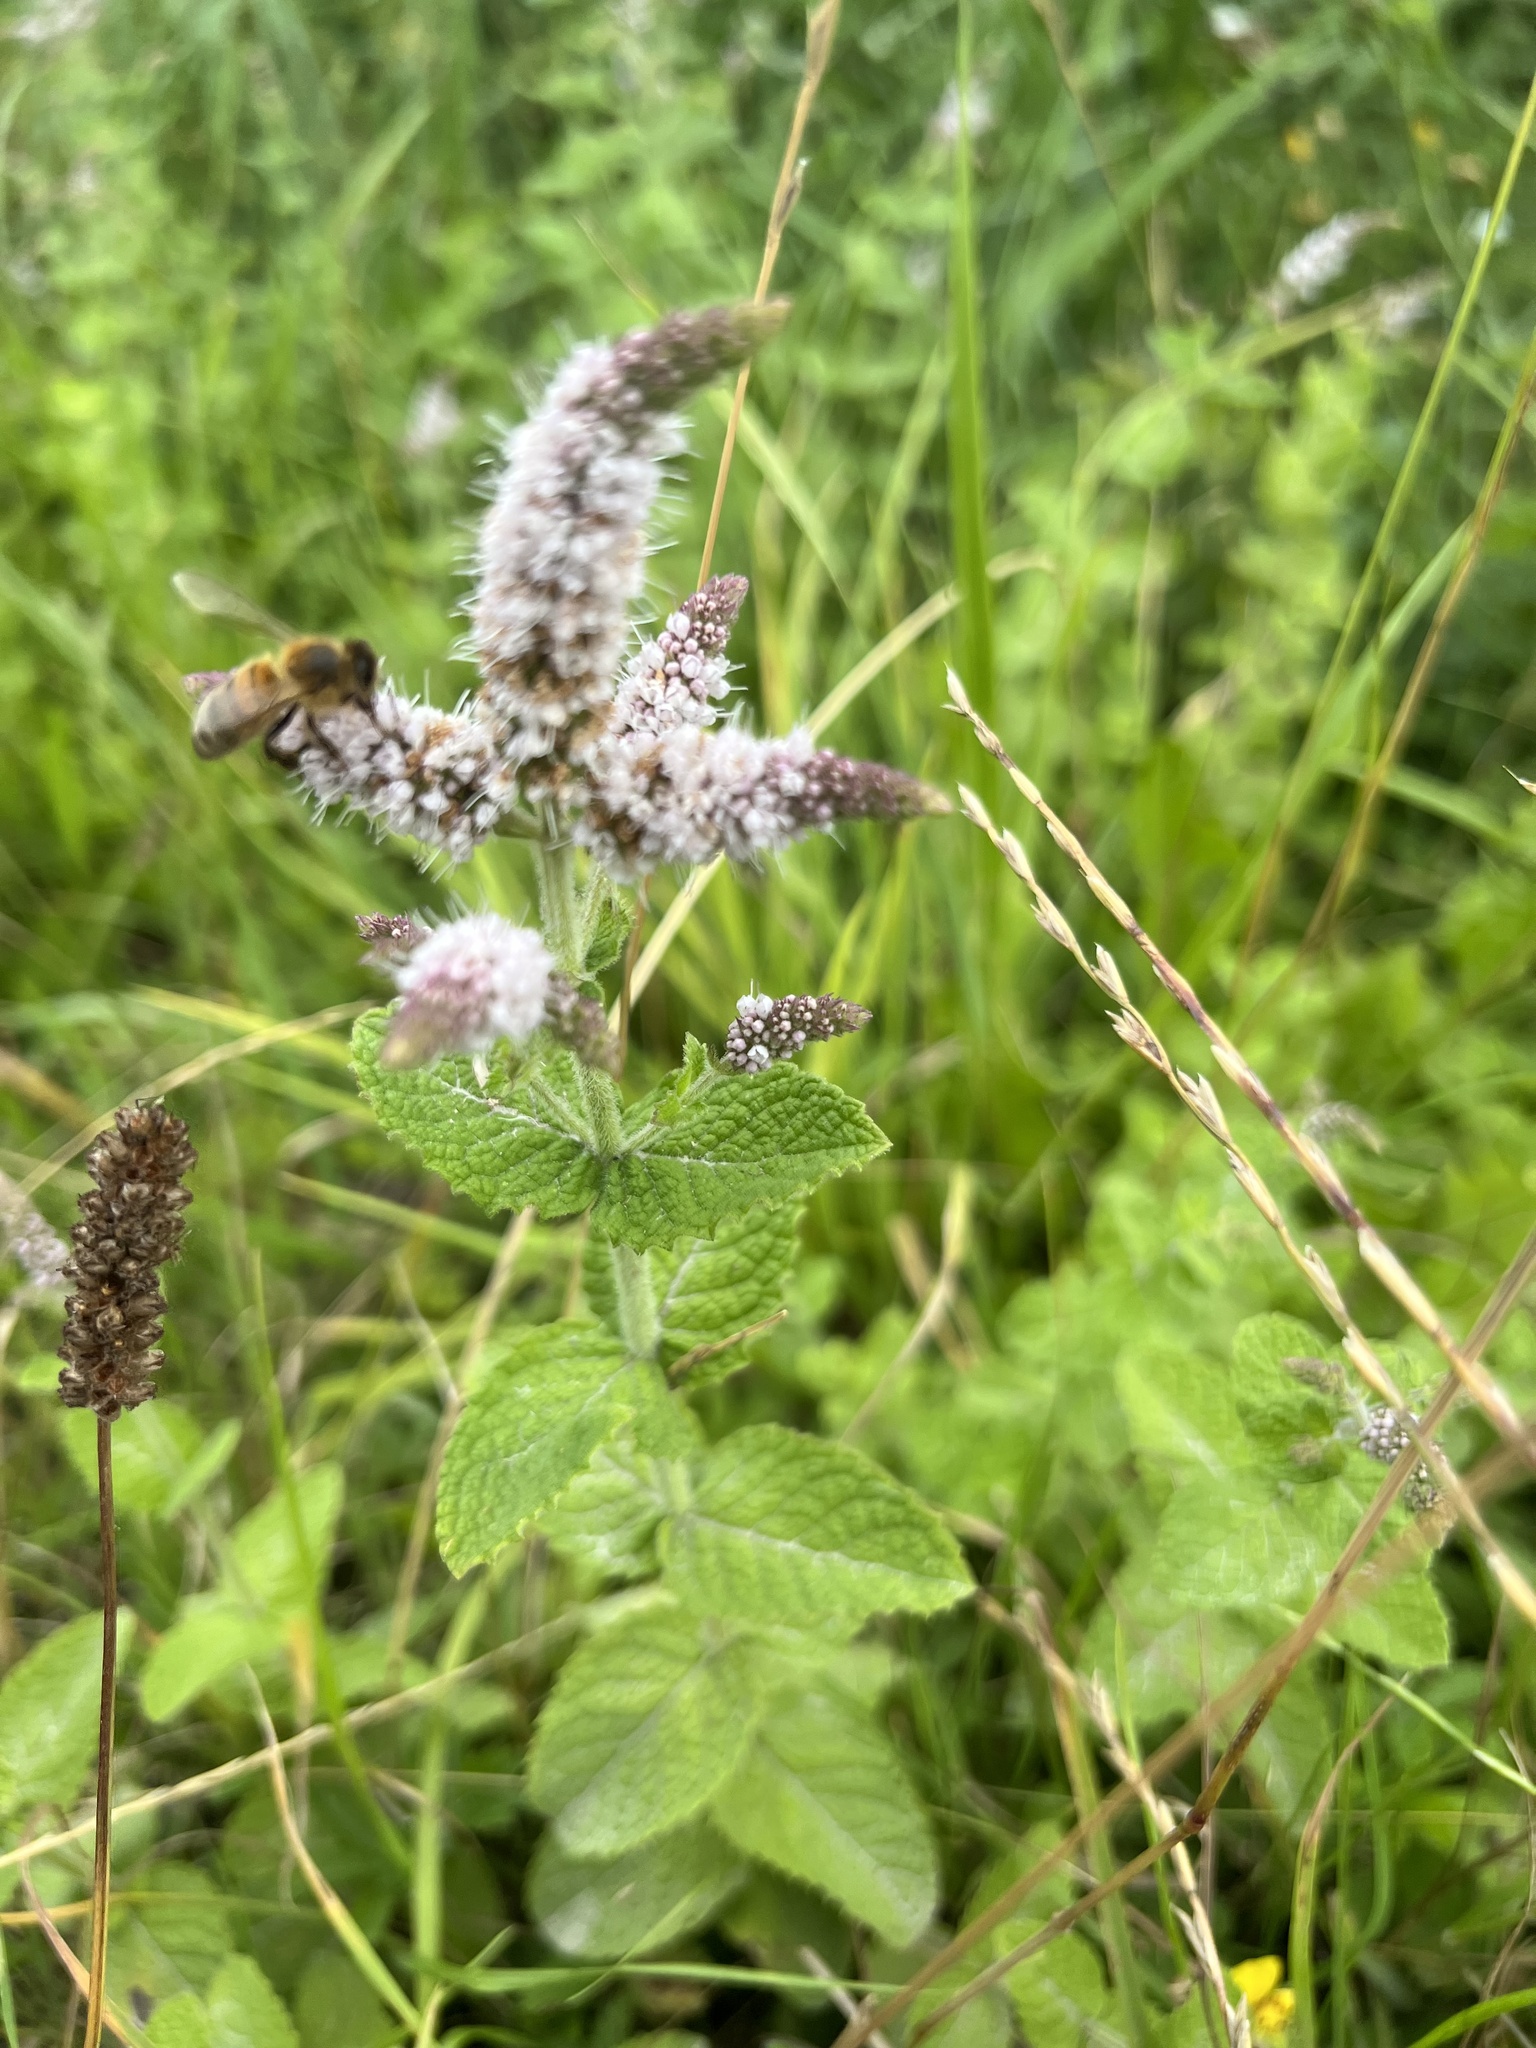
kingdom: Plantae
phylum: Tracheophyta
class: Magnoliopsida
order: Lamiales
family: Lamiaceae
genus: Mentha
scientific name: Mentha suaveolens
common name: Apple mint
